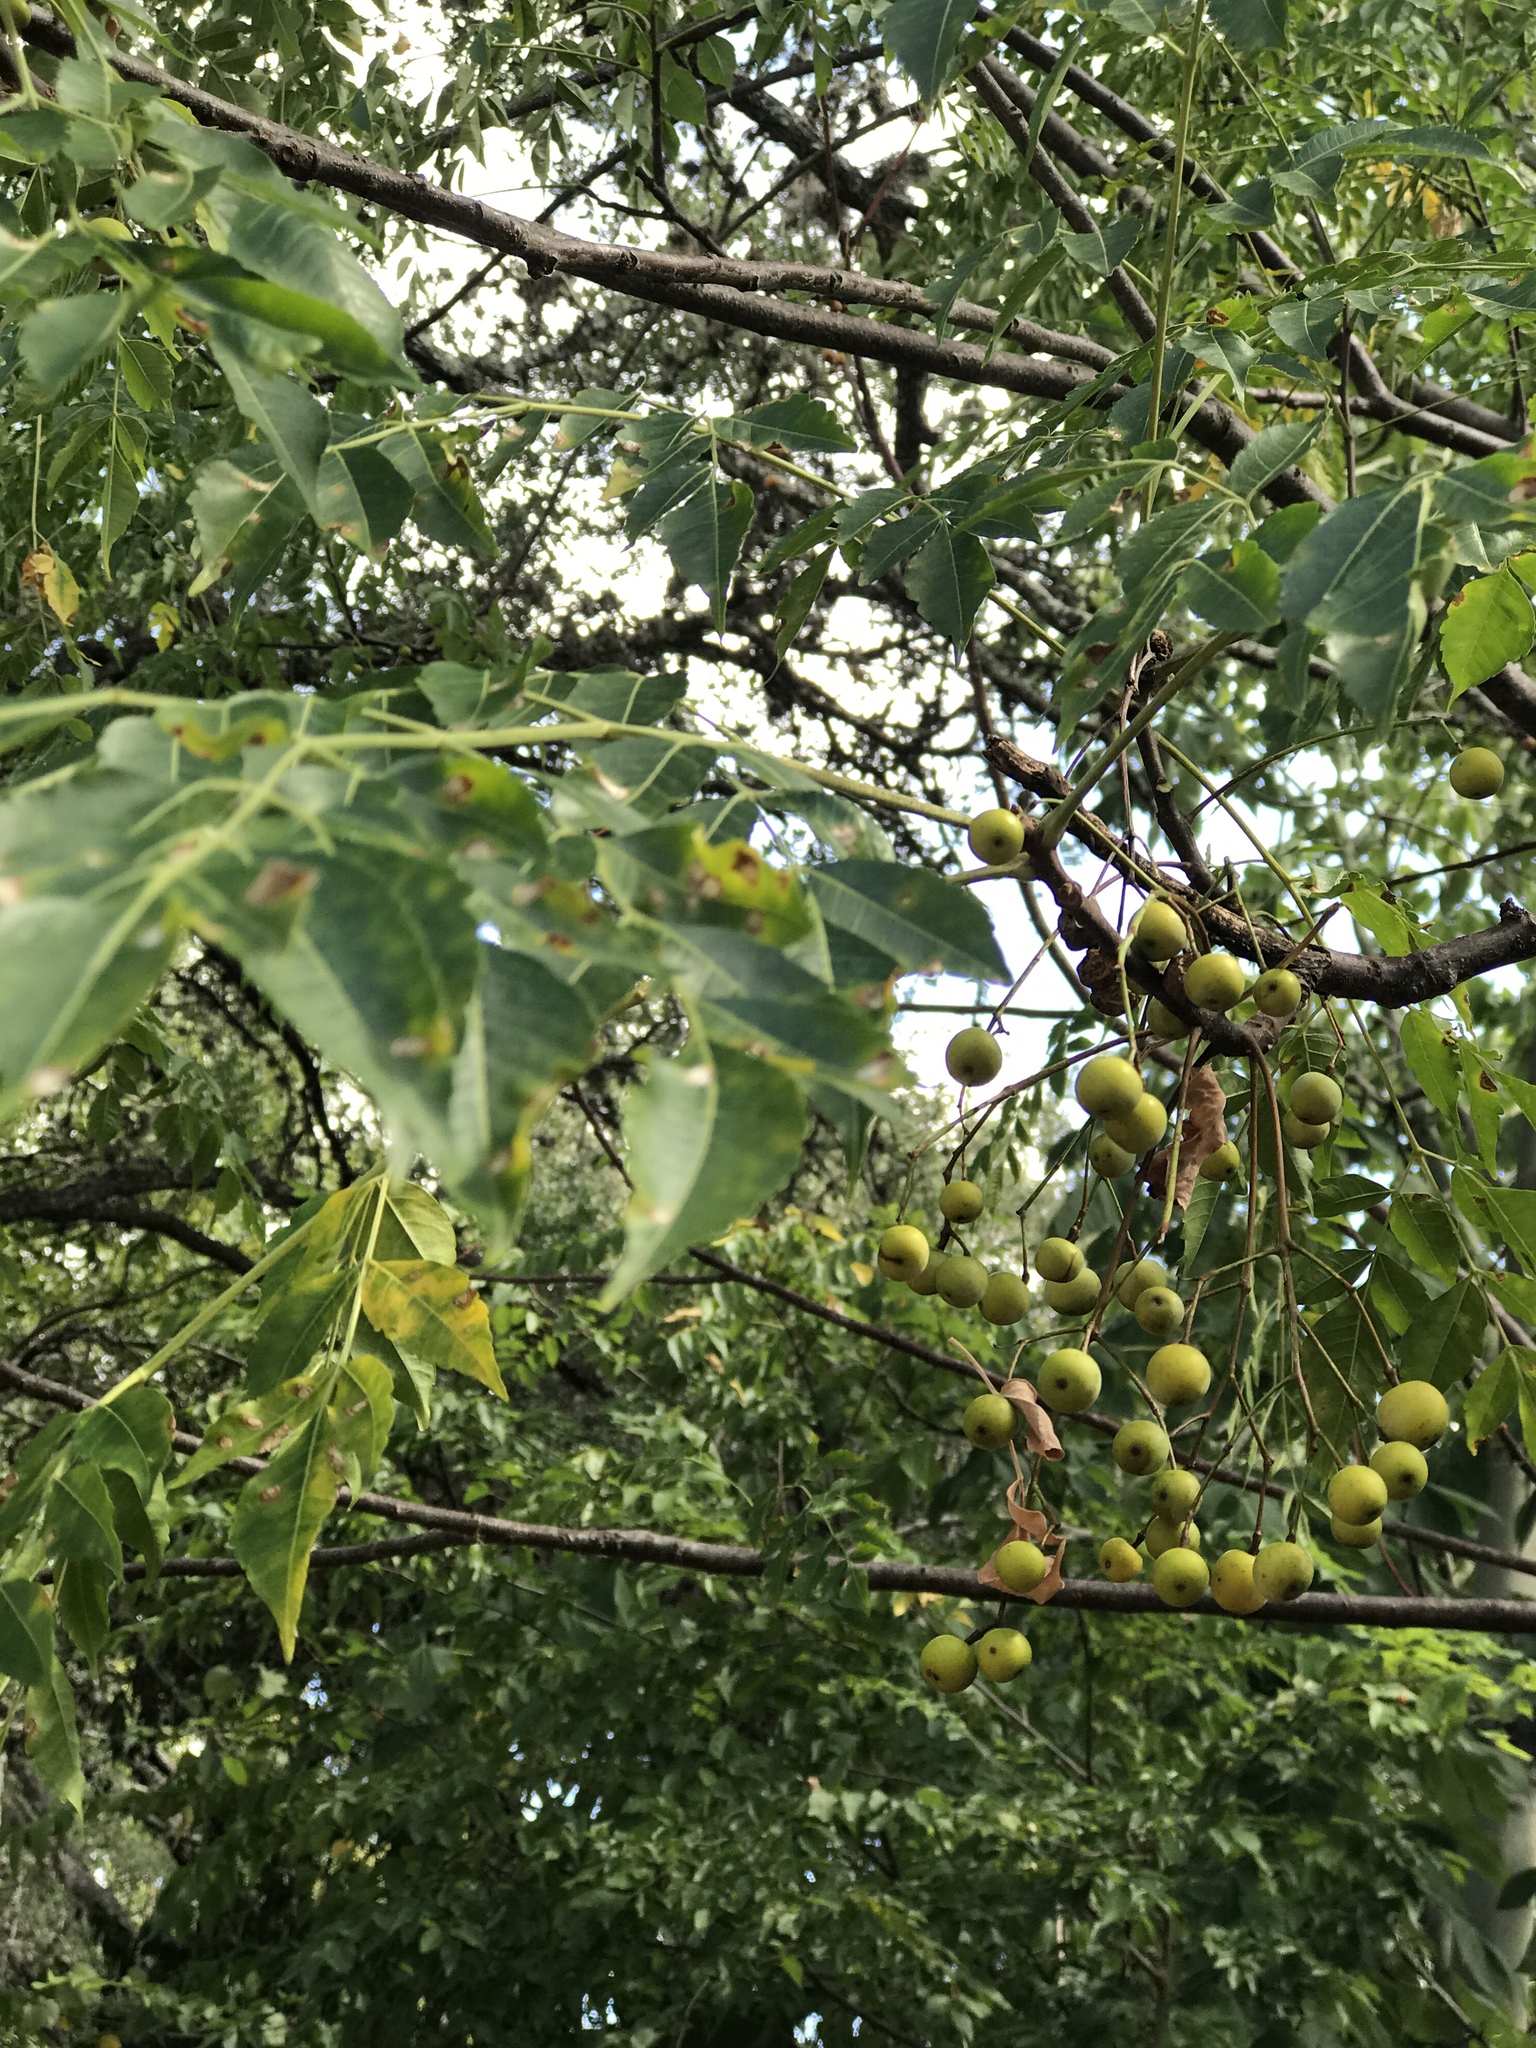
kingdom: Plantae
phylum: Tracheophyta
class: Magnoliopsida
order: Sapindales
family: Meliaceae
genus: Melia
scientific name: Melia azedarach
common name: Chinaberrytree
